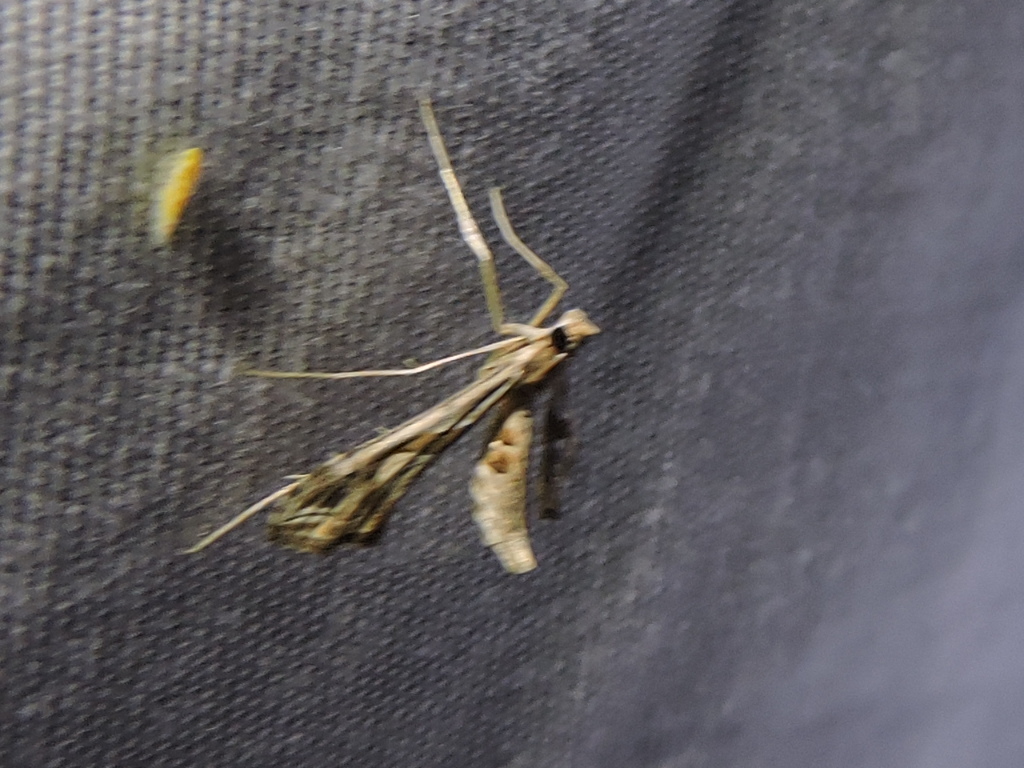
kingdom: Animalia
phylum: Arthropoda
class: Insecta
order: Lepidoptera
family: Crambidae
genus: Lineodes
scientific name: Lineodes integra
